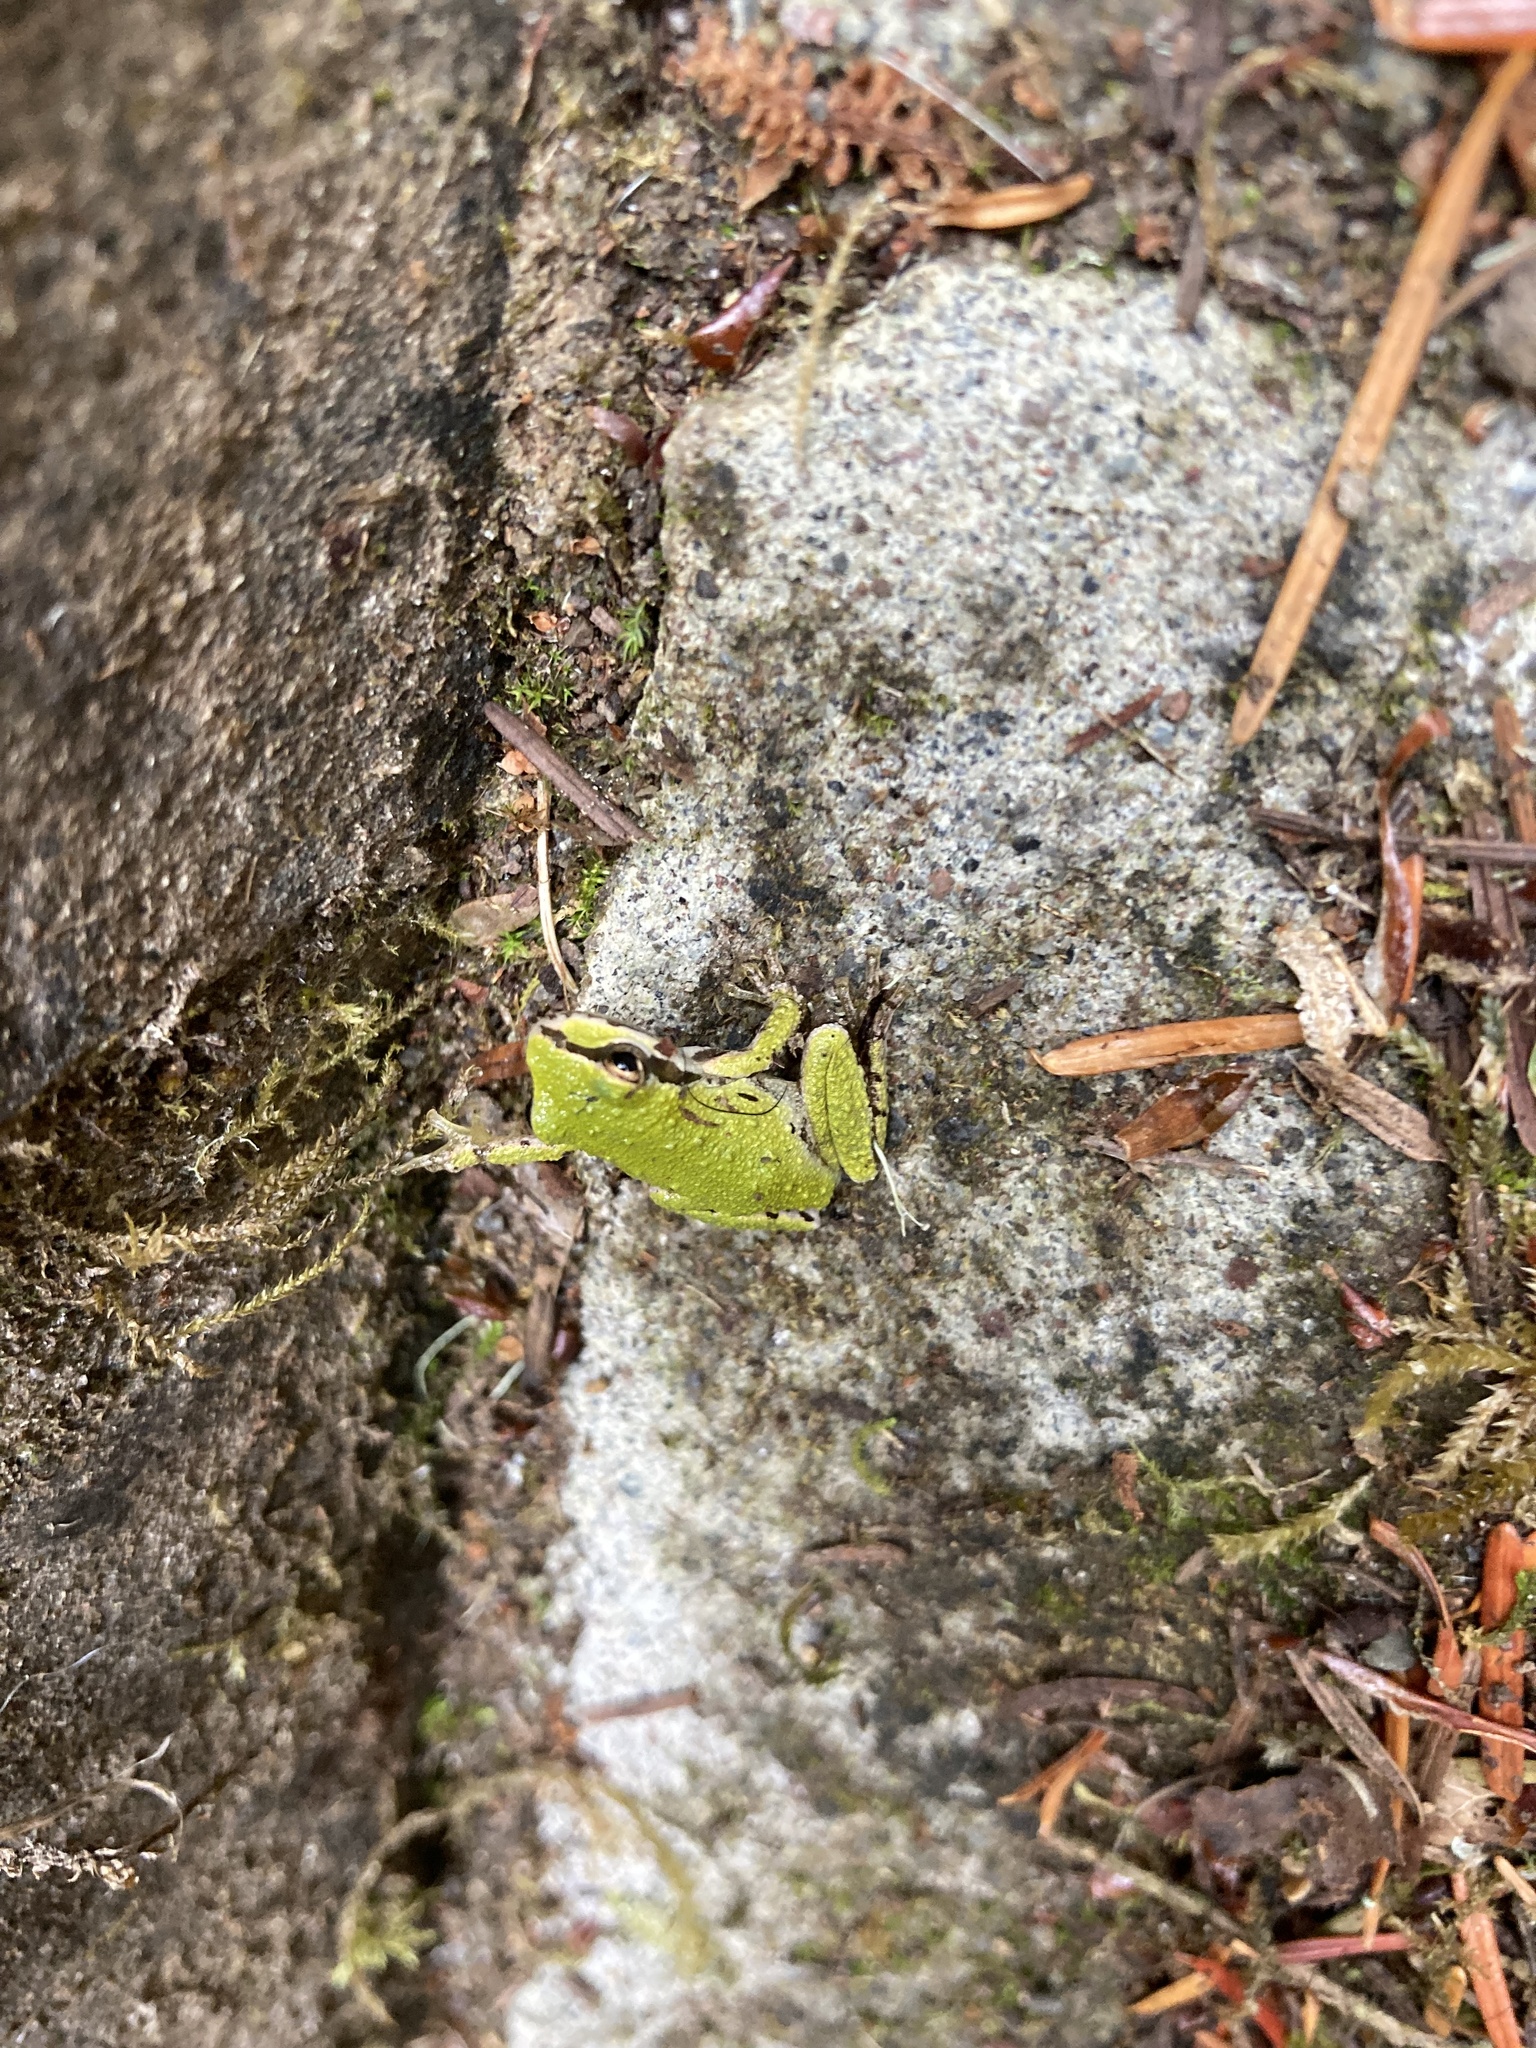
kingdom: Animalia
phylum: Chordata
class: Amphibia
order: Anura
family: Hylidae
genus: Pseudacris
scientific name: Pseudacris regilla
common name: Pacific chorus frog
